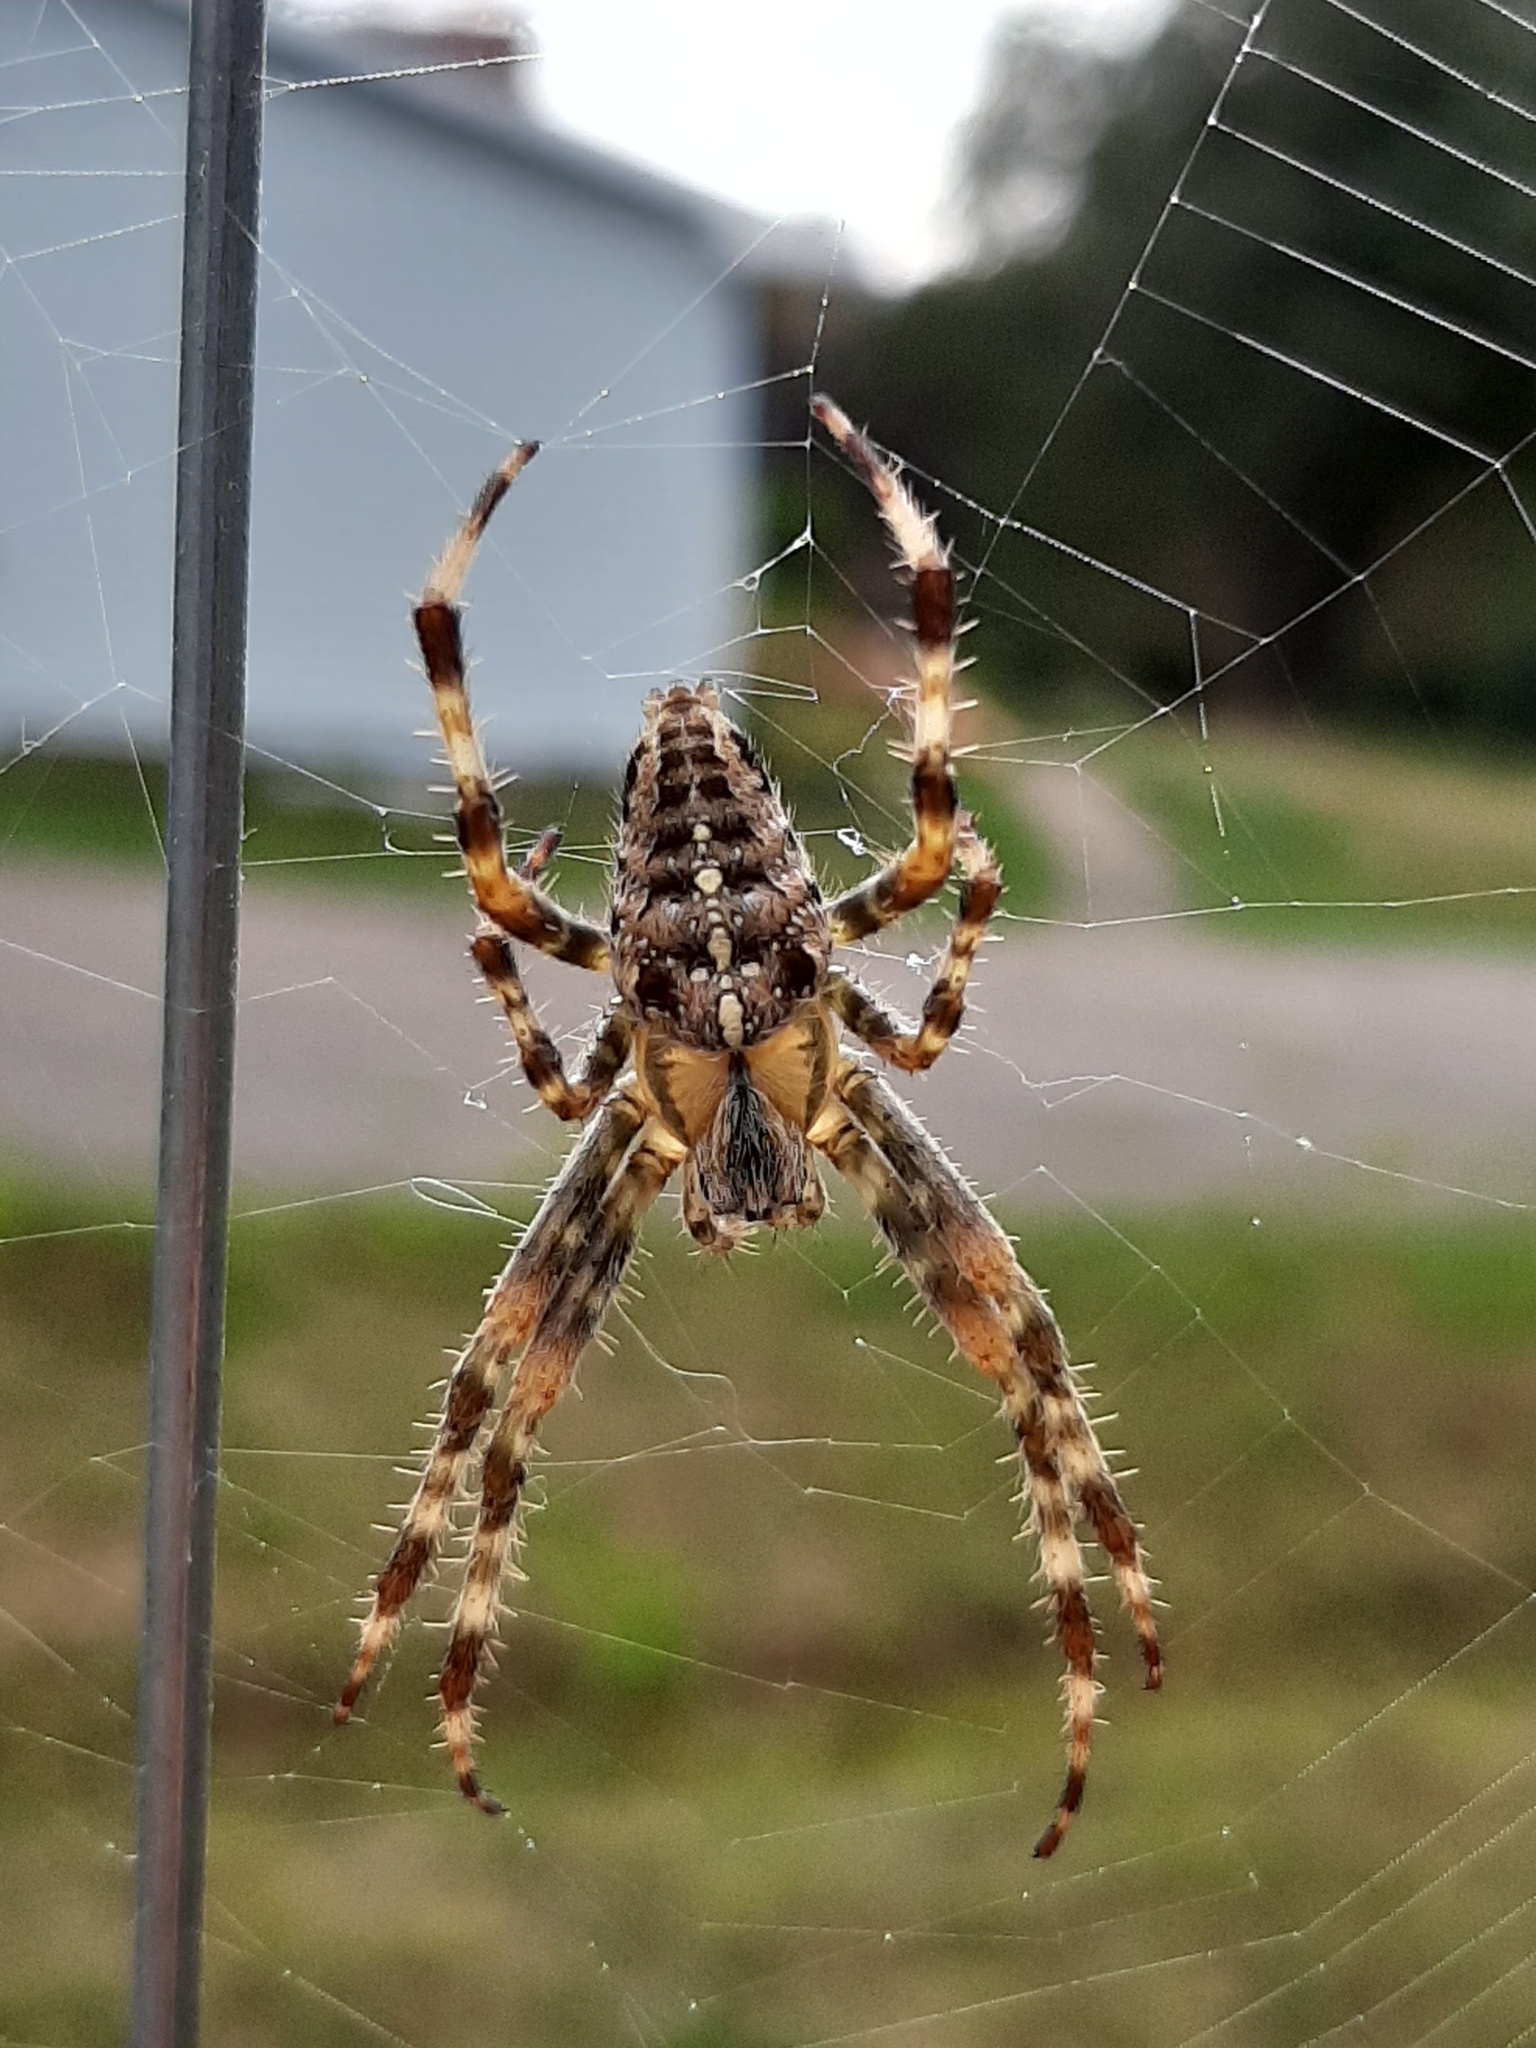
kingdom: Animalia
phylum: Arthropoda
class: Arachnida
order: Araneae
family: Araneidae
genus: Araneus
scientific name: Araneus diadematus
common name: Cross orbweaver
